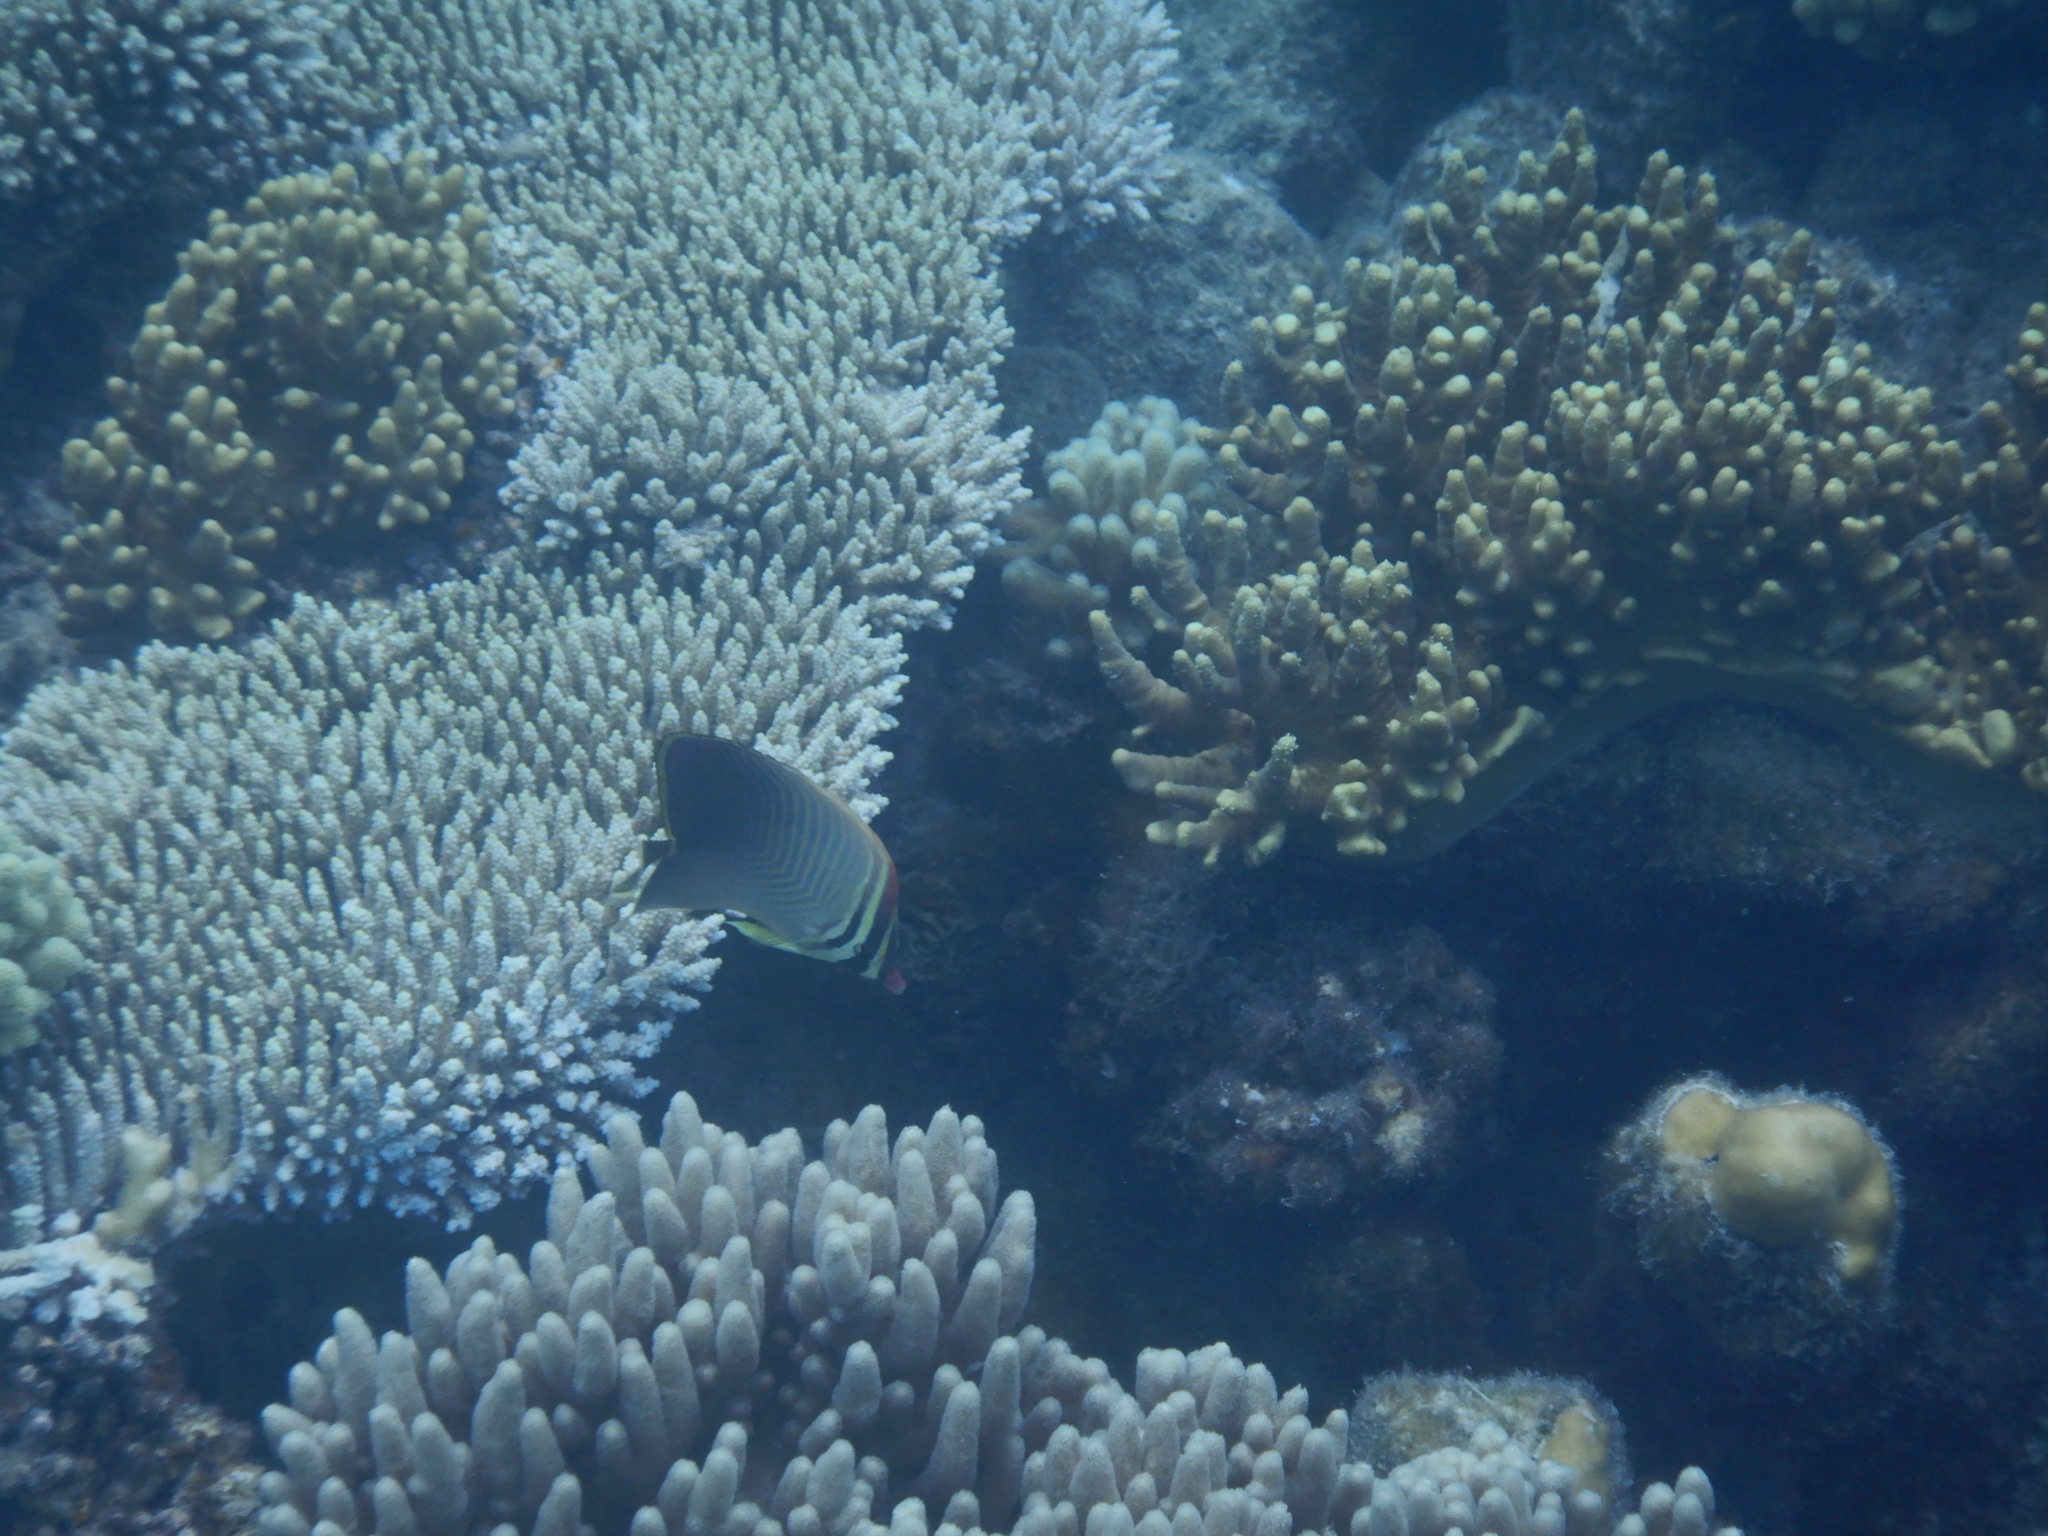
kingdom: Animalia
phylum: Chordata
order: Perciformes
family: Chaetodontidae
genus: Chaetodon
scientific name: Chaetodon baronessa
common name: Triangular butterflyfish
